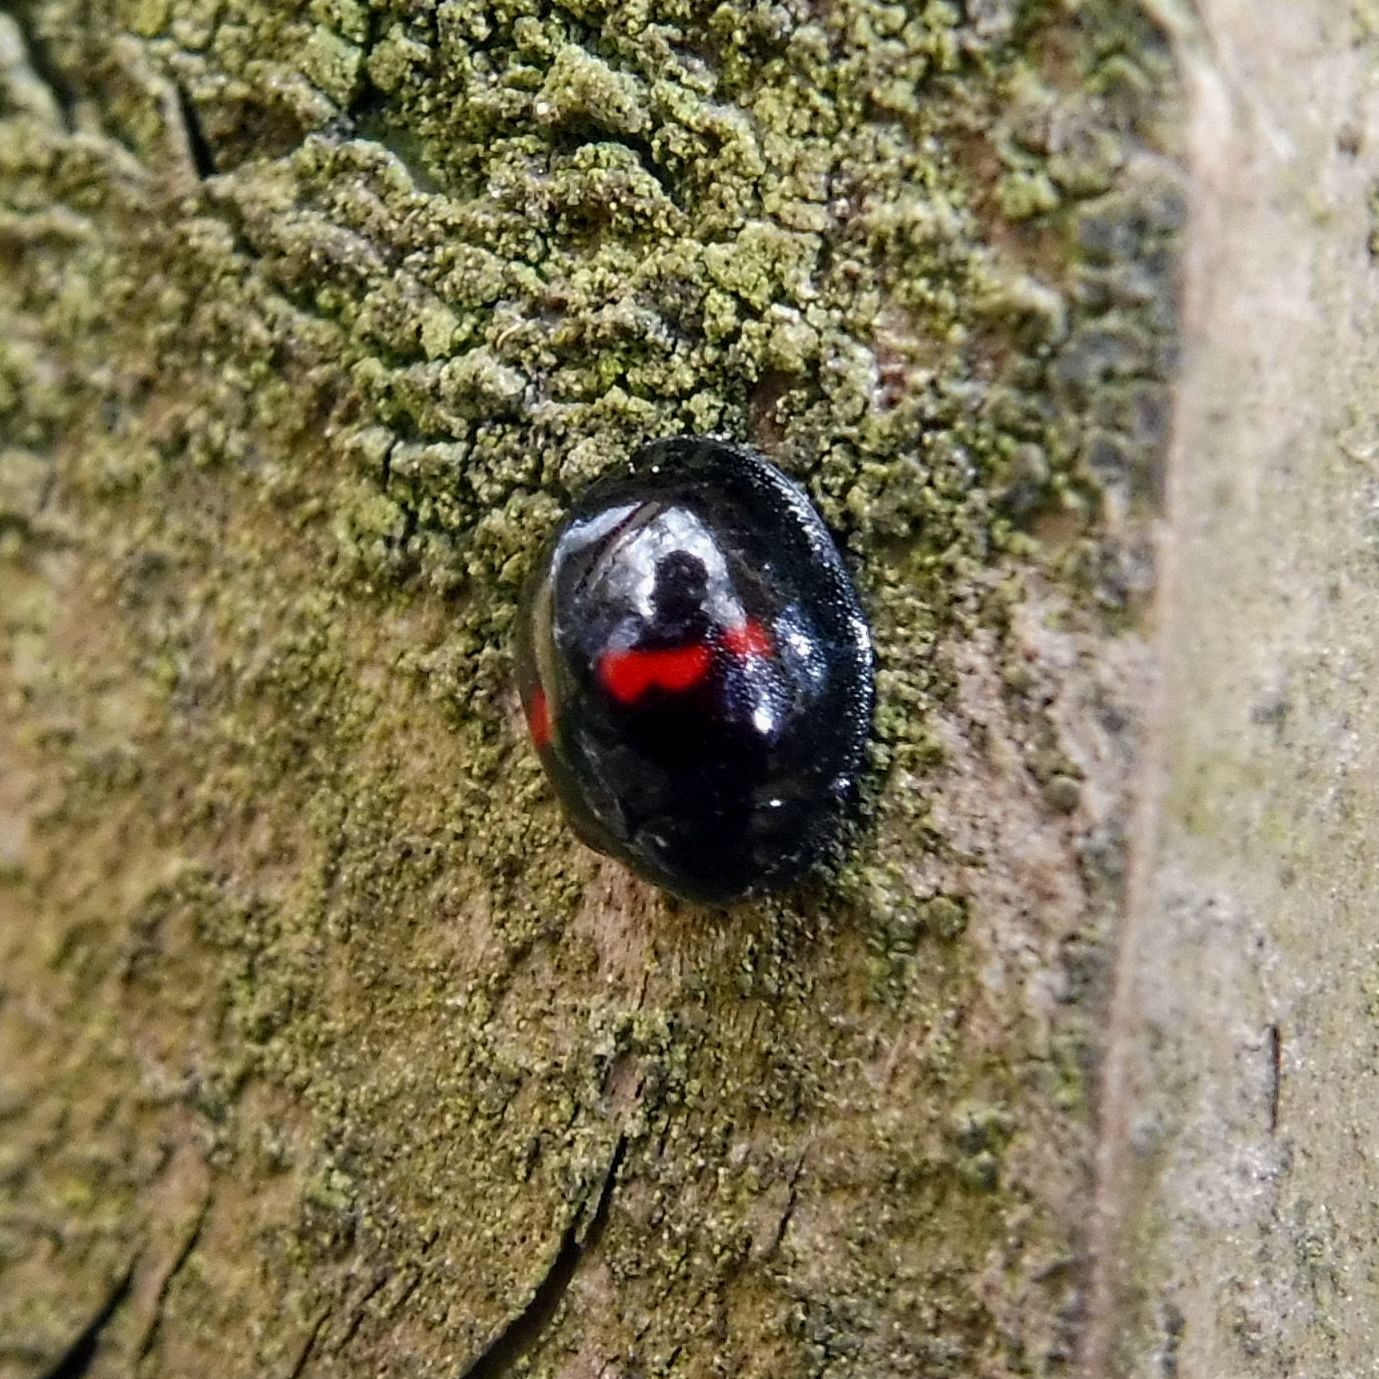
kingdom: Animalia
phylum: Arthropoda
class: Insecta
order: Coleoptera
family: Coccinellidae
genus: Chilocorus
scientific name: Chilocorus bipustulatus
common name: Heather ladybird
